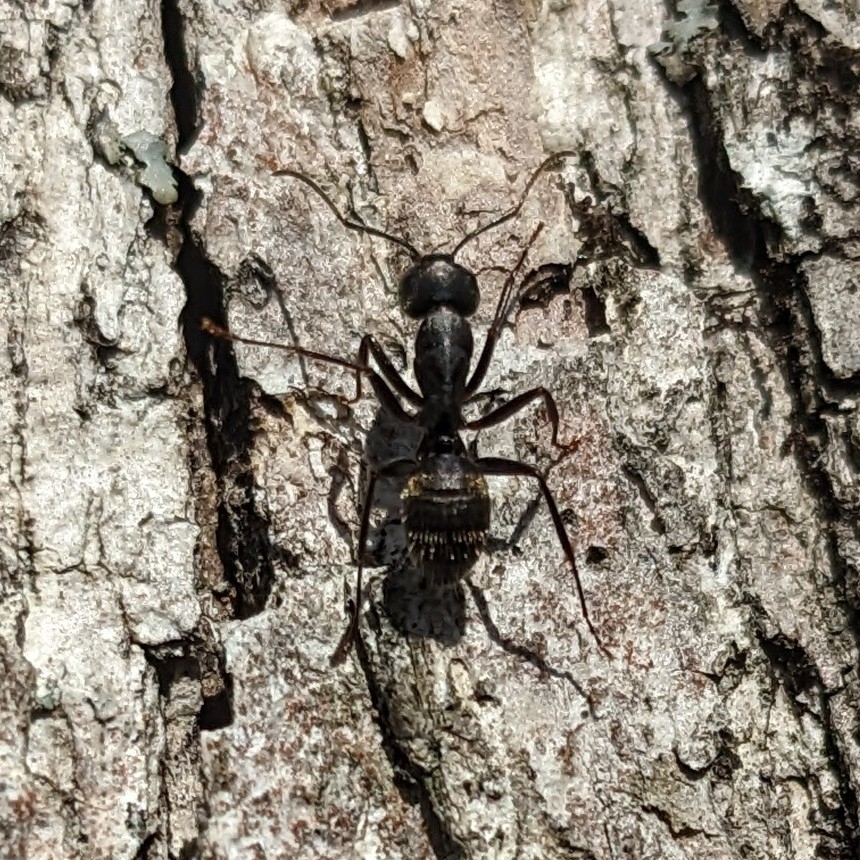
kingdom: Animalia
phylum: Arthropoda
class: Insecta
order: Hymenoptera
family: Formicidae
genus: Camponotus
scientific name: Camponotus pennsylvanicus
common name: Black carpenter ant
